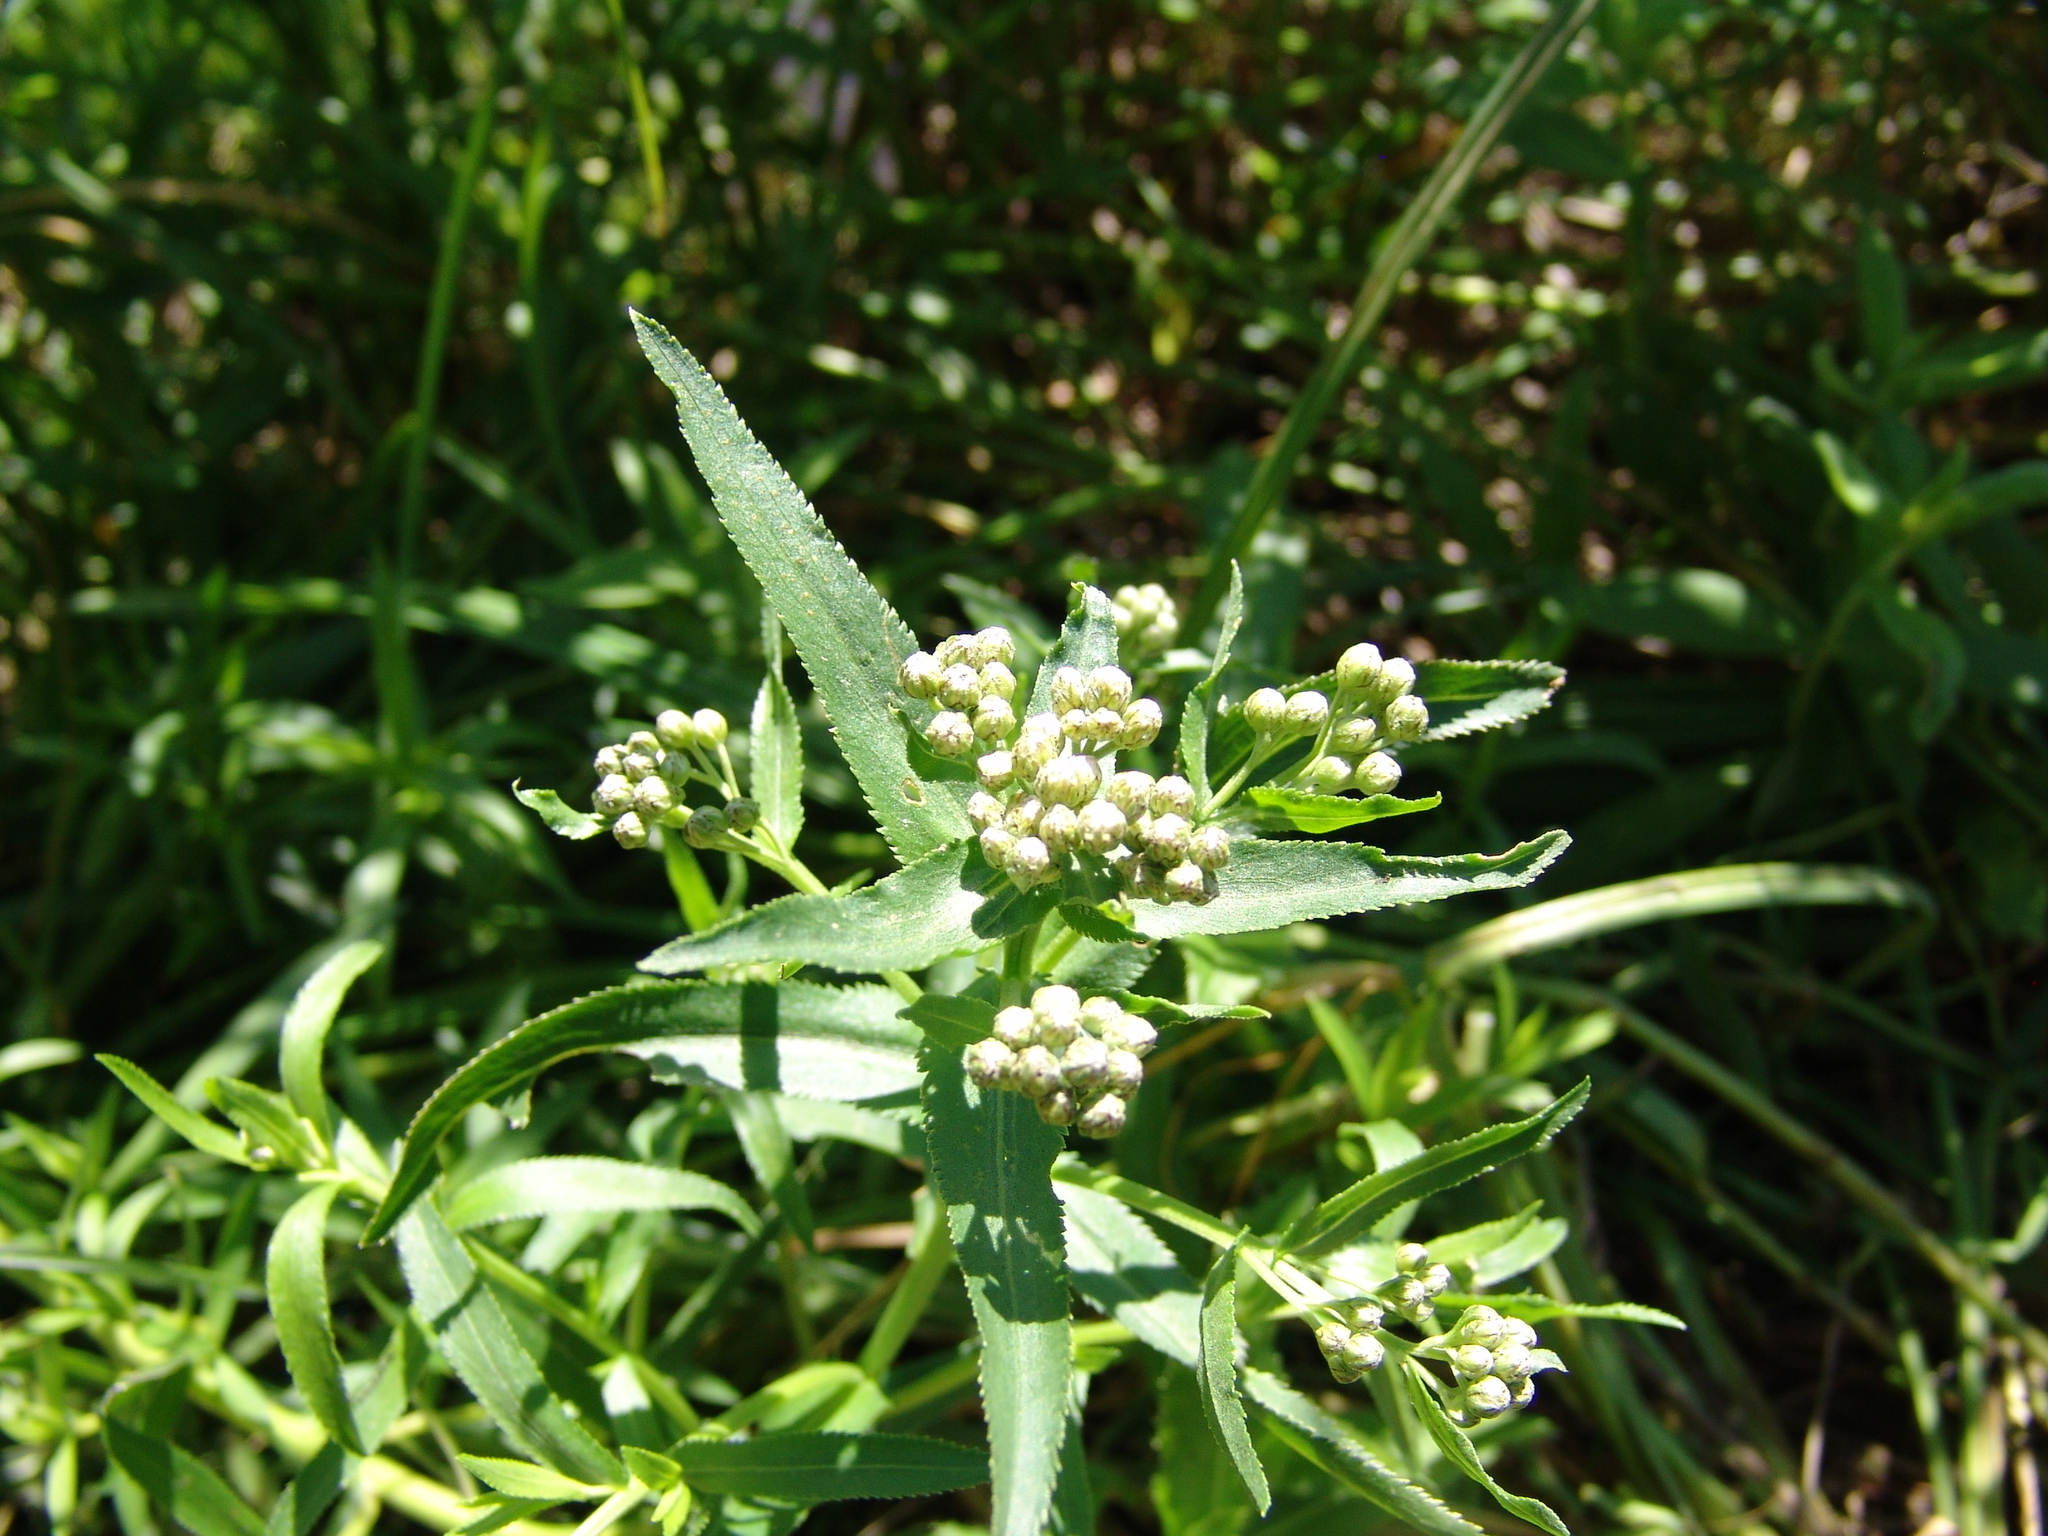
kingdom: Plantae
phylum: Tracheophyta
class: Magnoliopsida
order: Asterales
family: Asteraceae
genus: Achillea
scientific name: Achillea salicifolia
